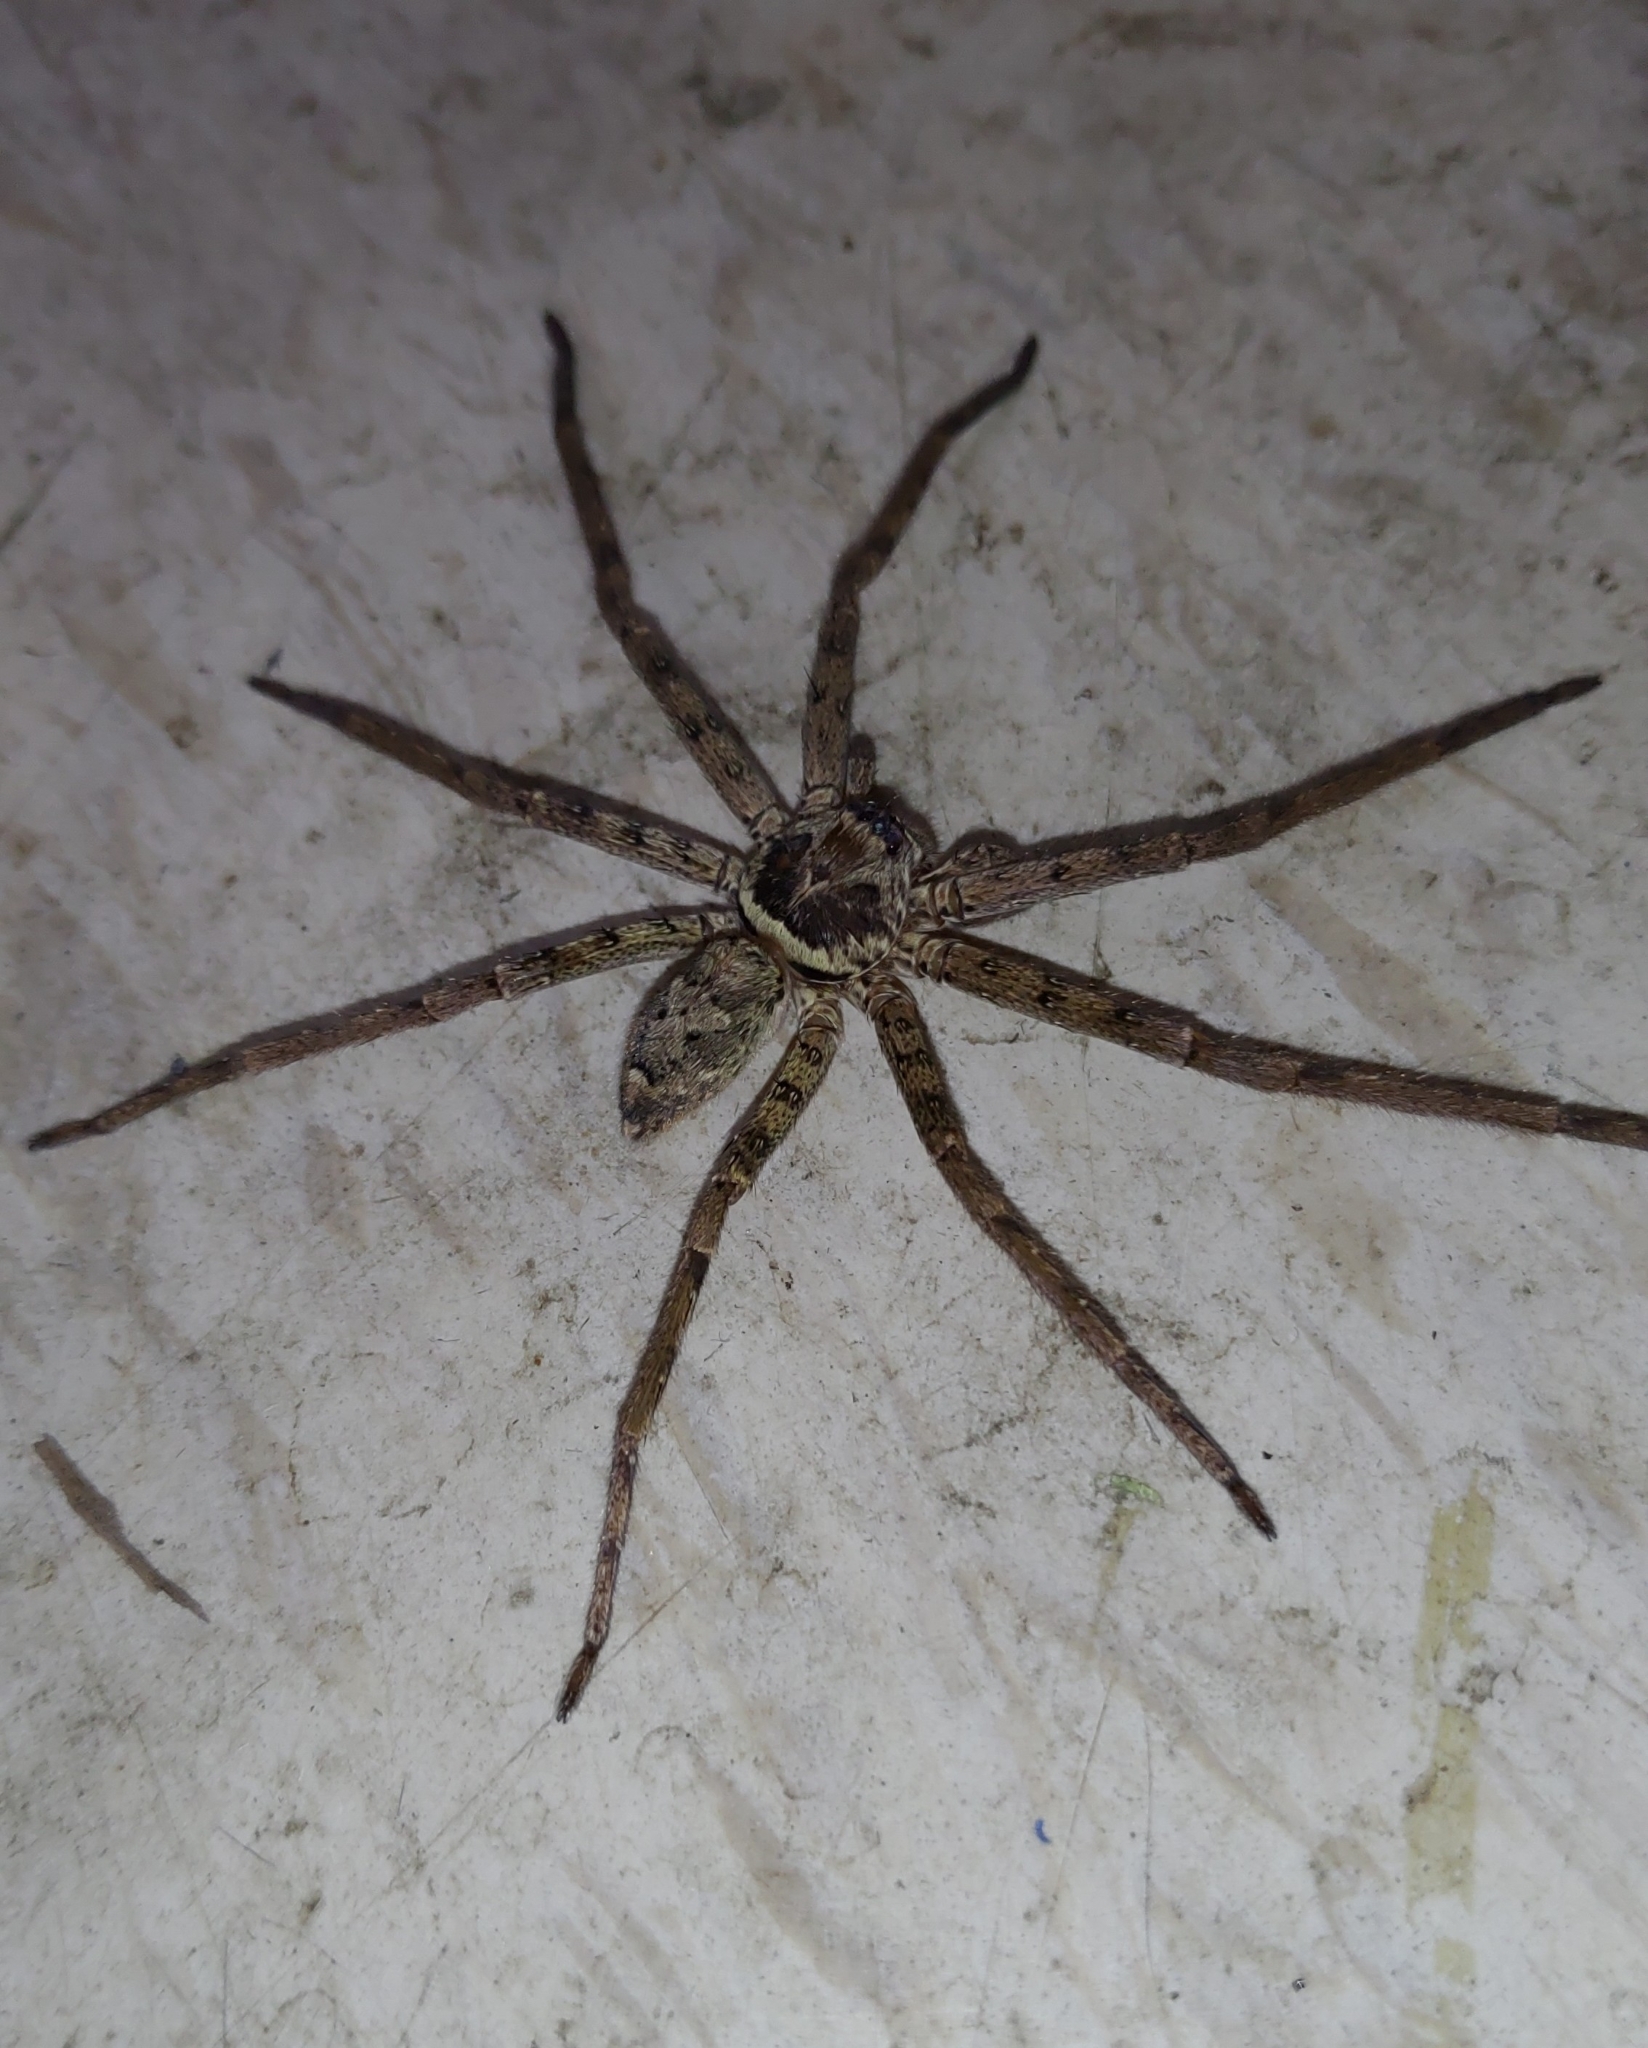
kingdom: Animalia
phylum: Arthropoda
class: Arachnida
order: Araneae
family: Sparassidae
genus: Heteropoda
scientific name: Heteropoda venatoria
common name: Huntsman spider
